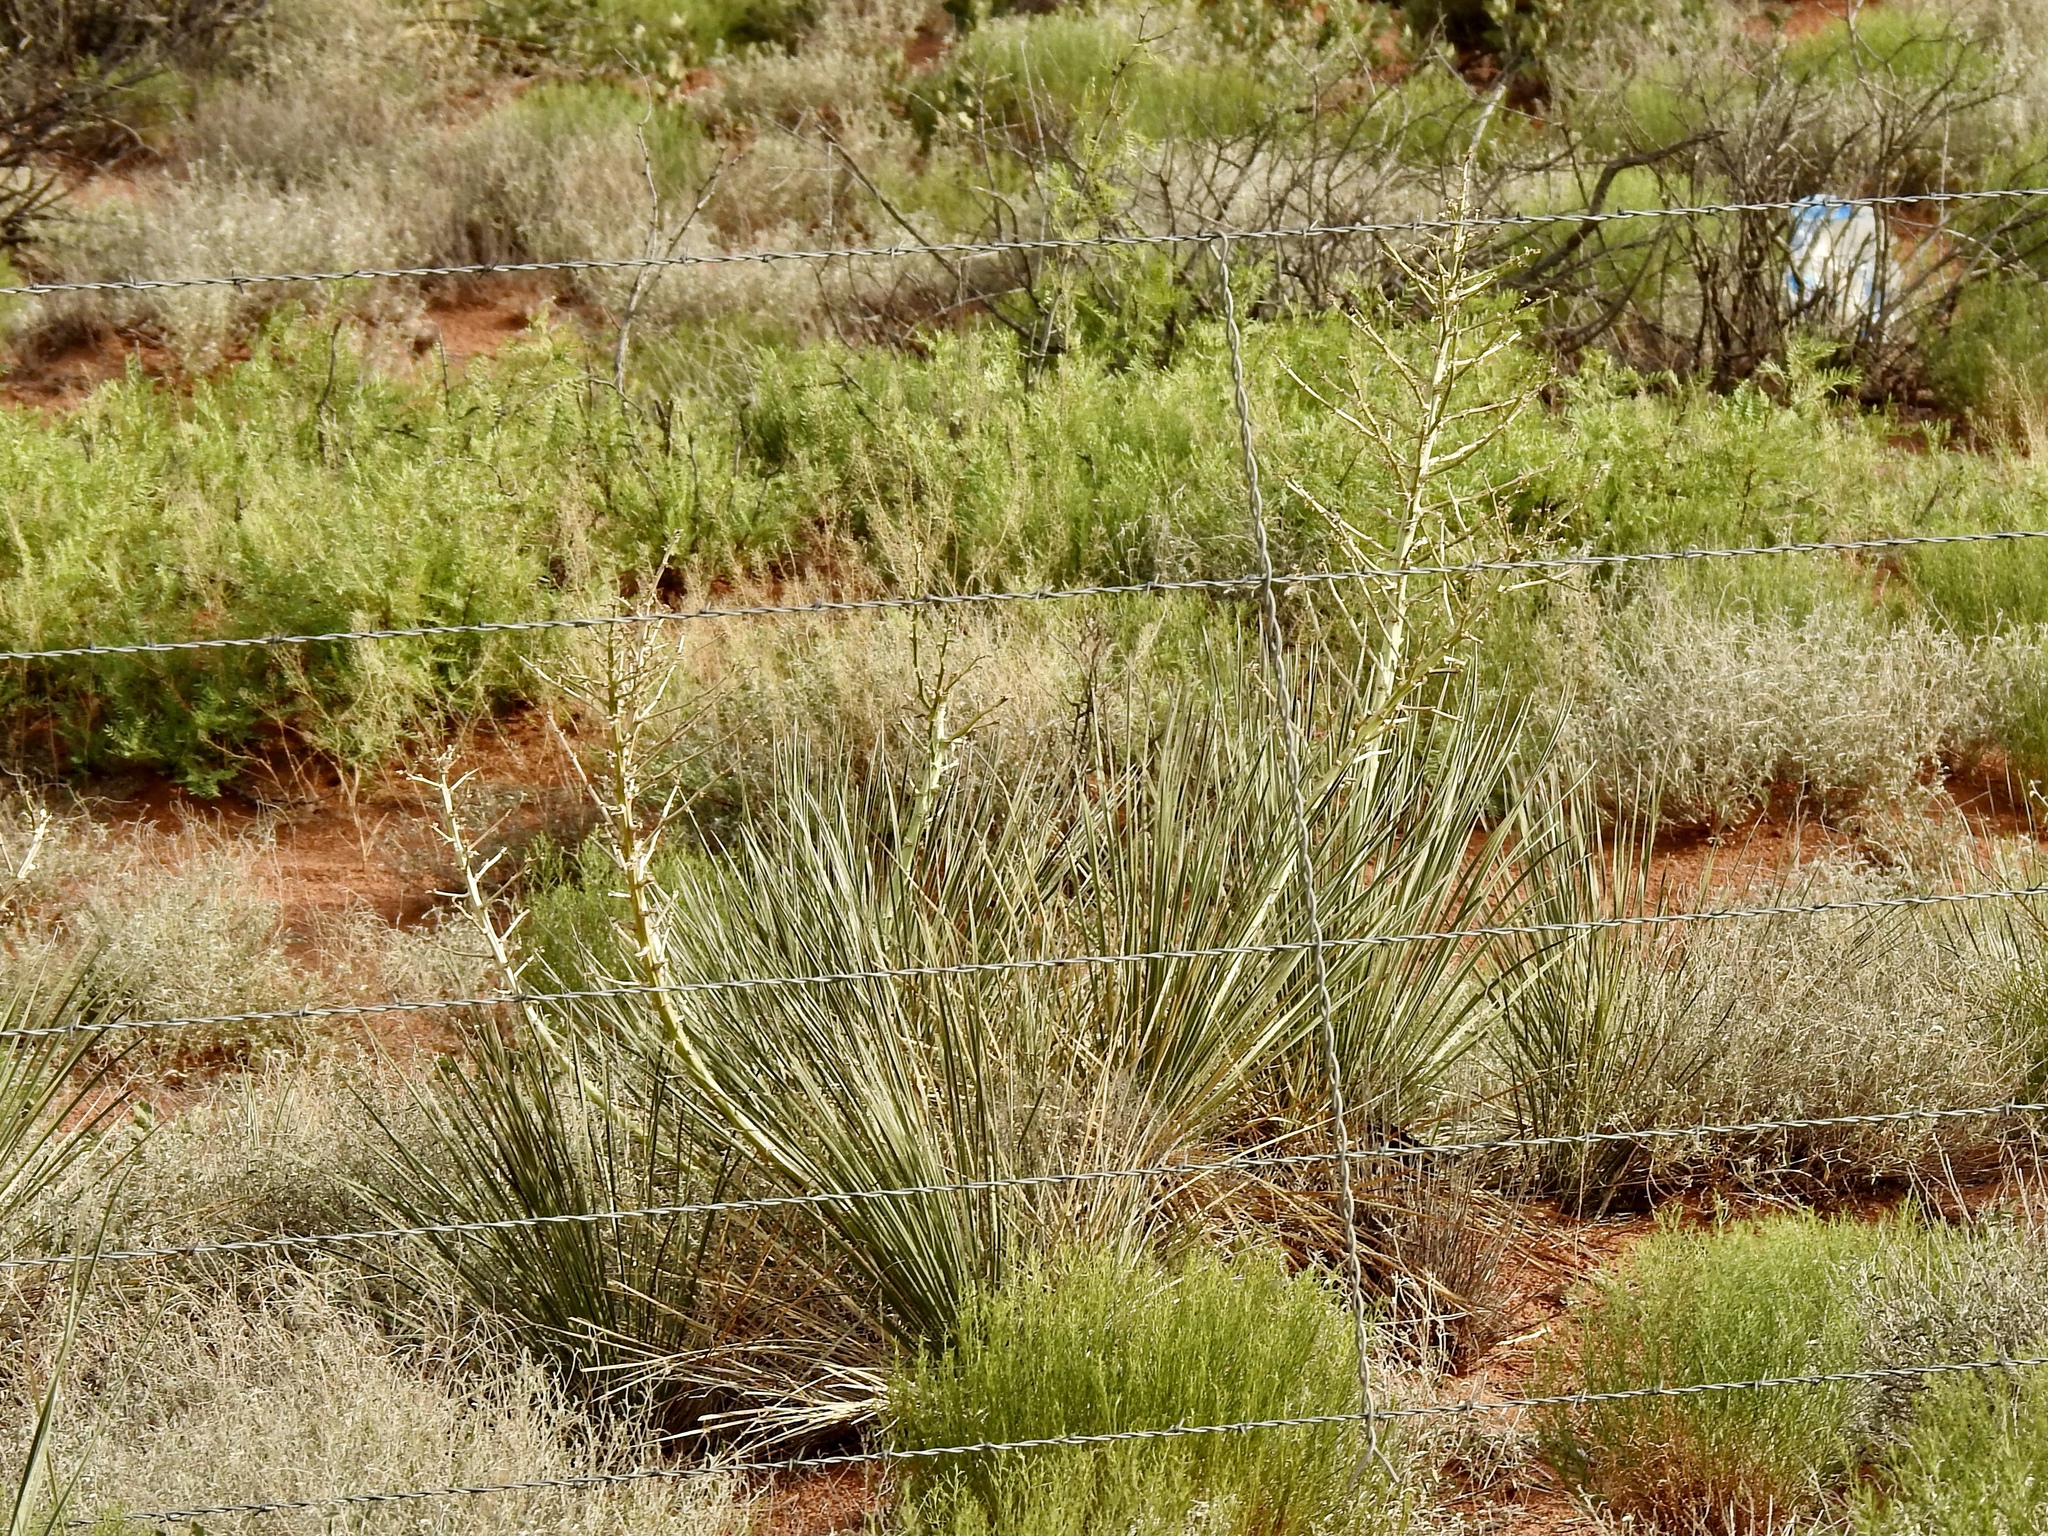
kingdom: Plantae
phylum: Tracheophyta
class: Liliopsida
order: Asparagales
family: Asparagaceae
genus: Yucca
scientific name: Yucca campestris
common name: Plains yucca
